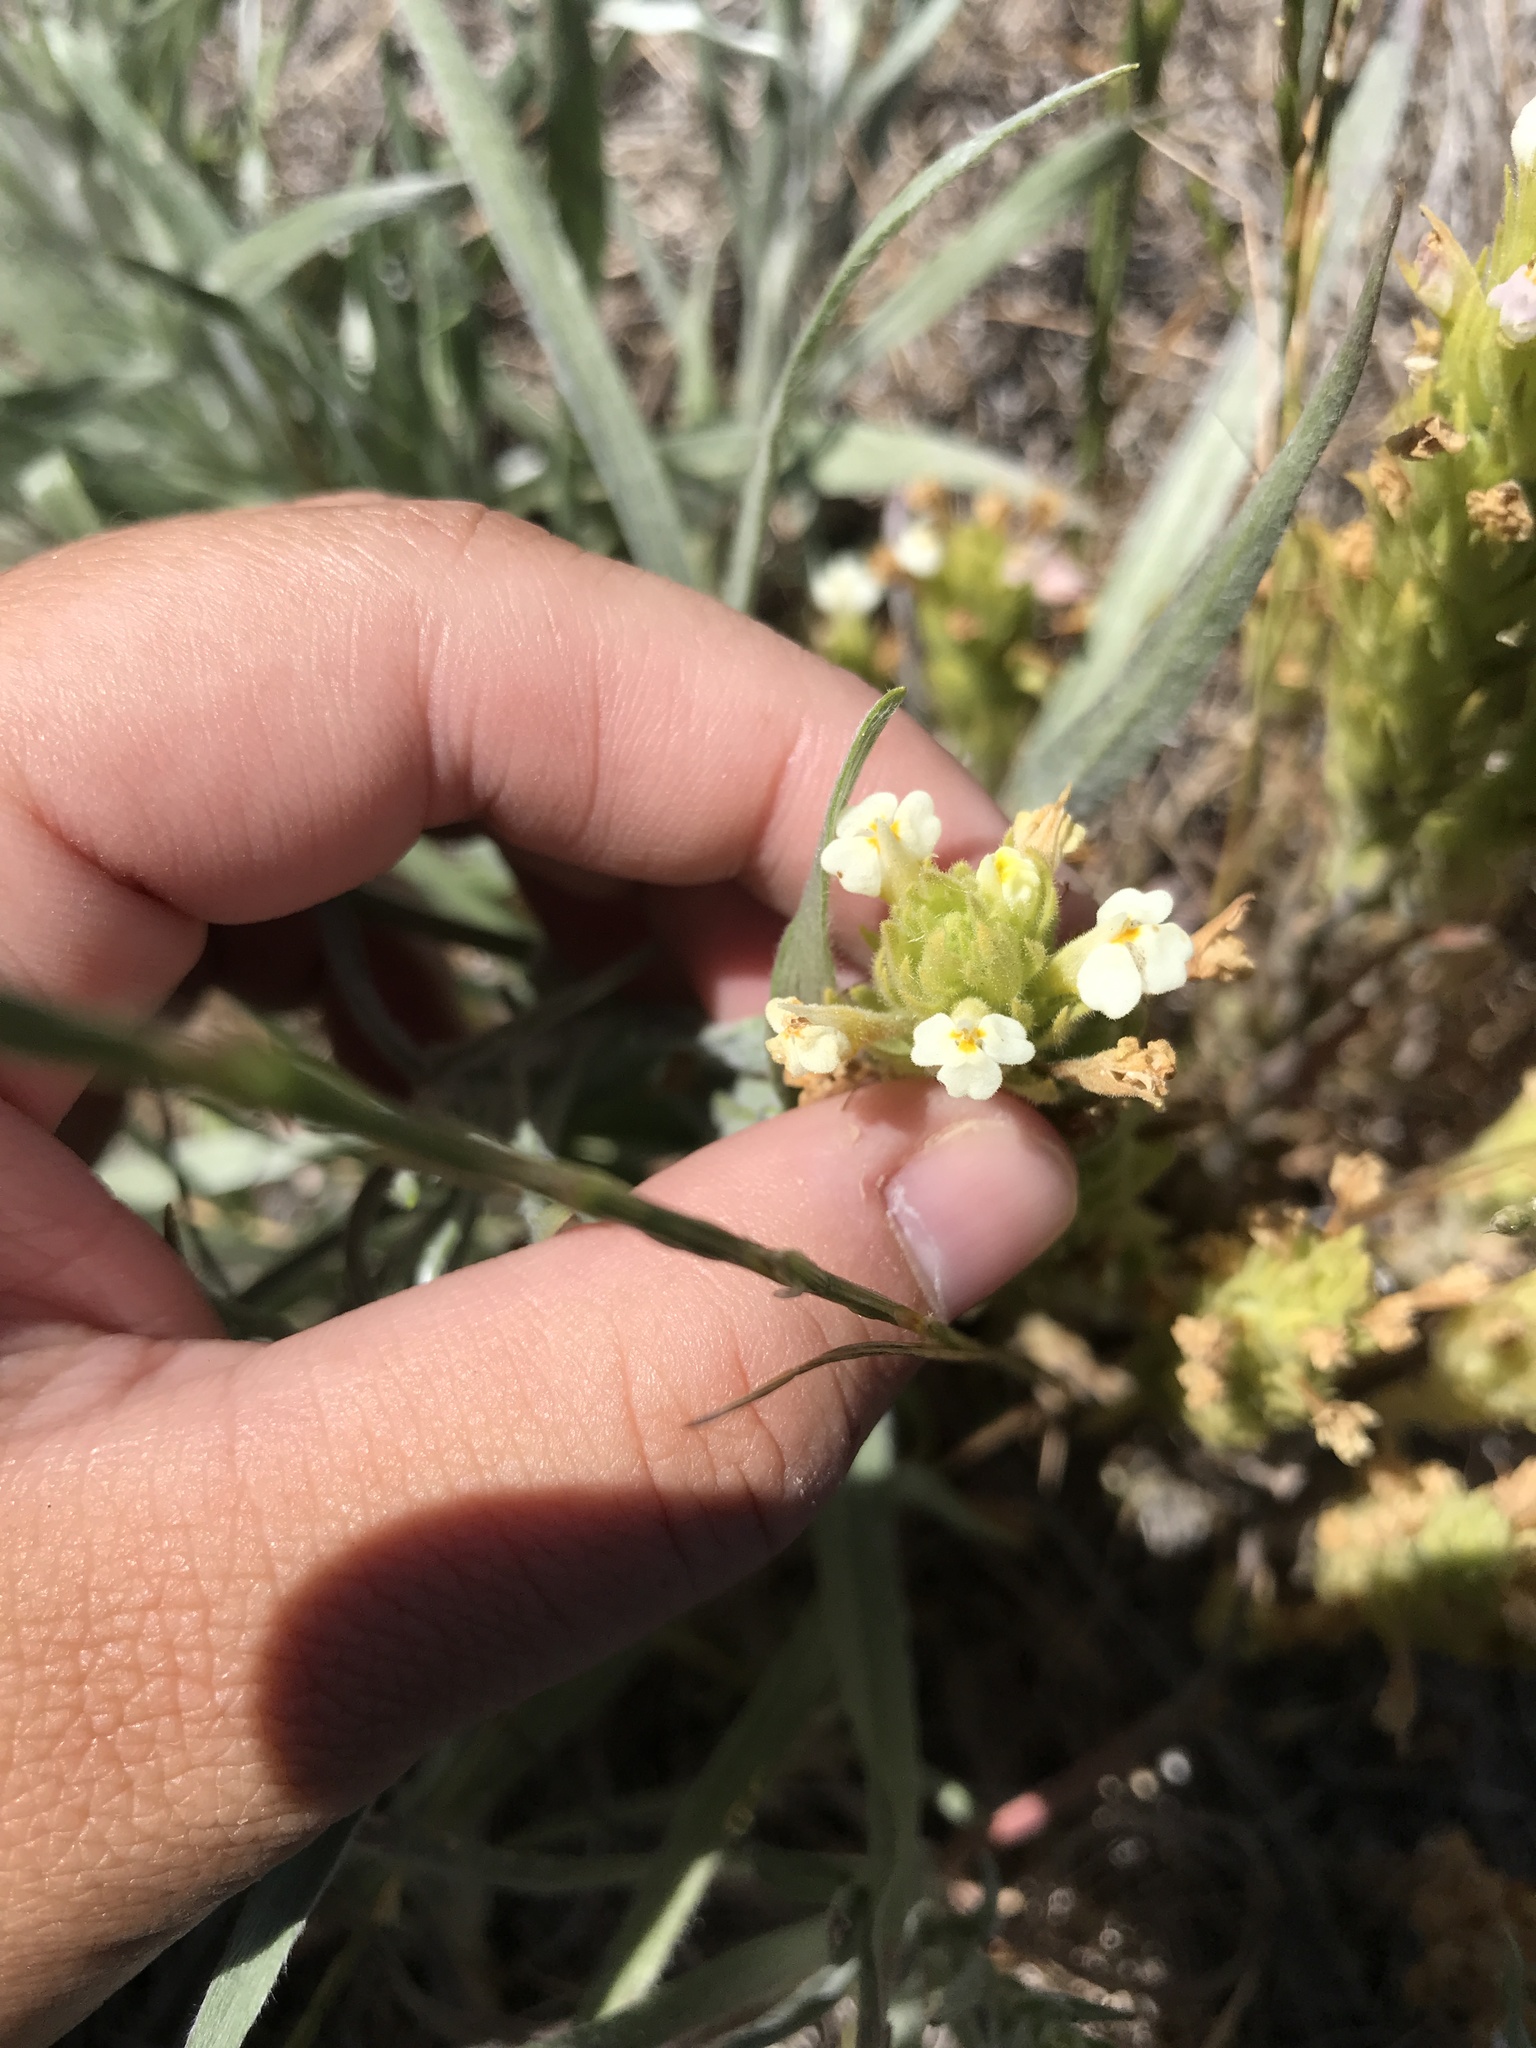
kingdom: Plantae
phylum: Tracheophyta
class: Magnoliopsida
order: Lamiales
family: Orobanchaceae
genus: Castilleja
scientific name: Castilleja rubicundula
